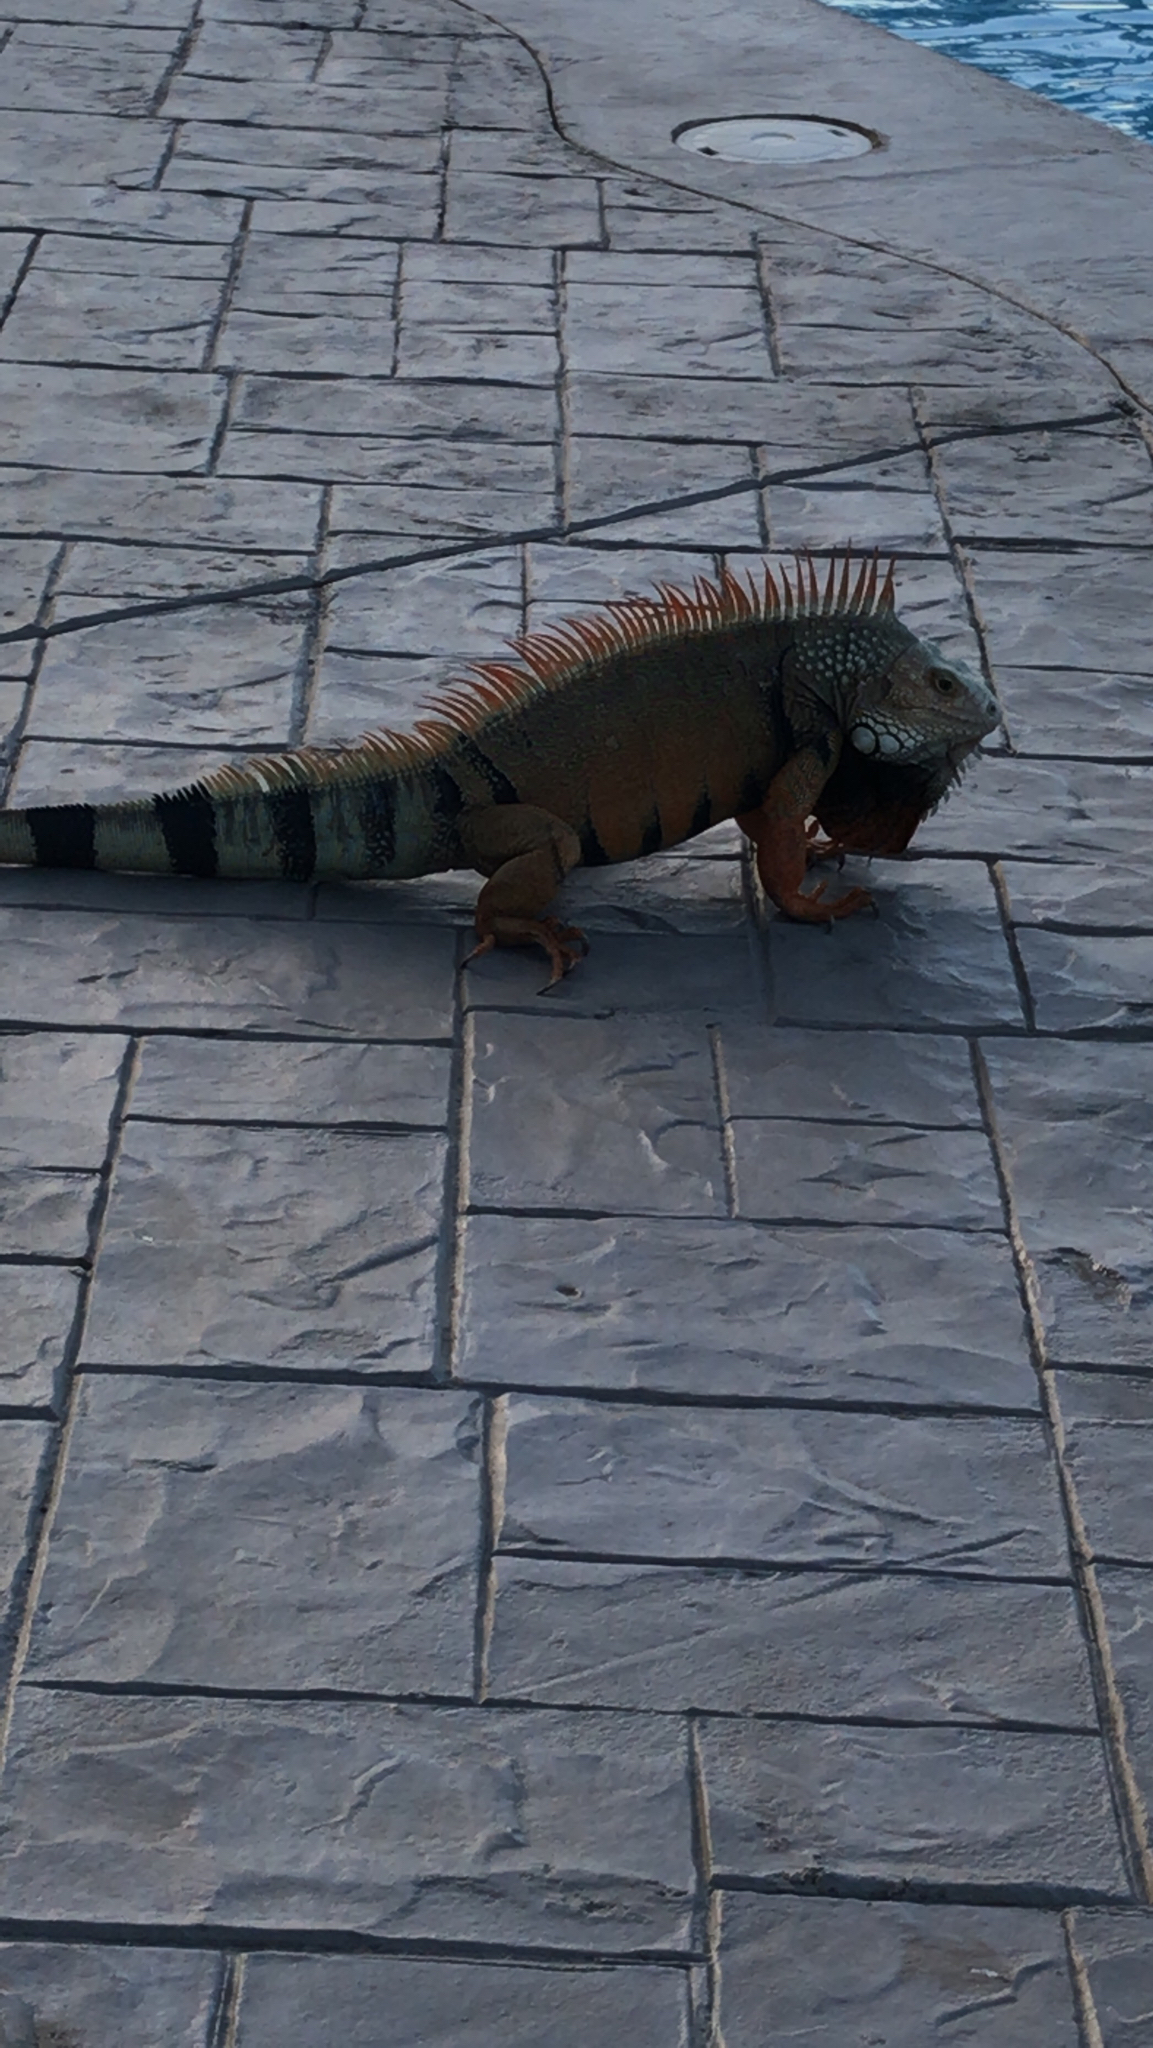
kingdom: Animalia
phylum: Chordata
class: Squamata
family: Iguanidae
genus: Iguana
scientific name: Iguana iguana
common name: Green iguana
